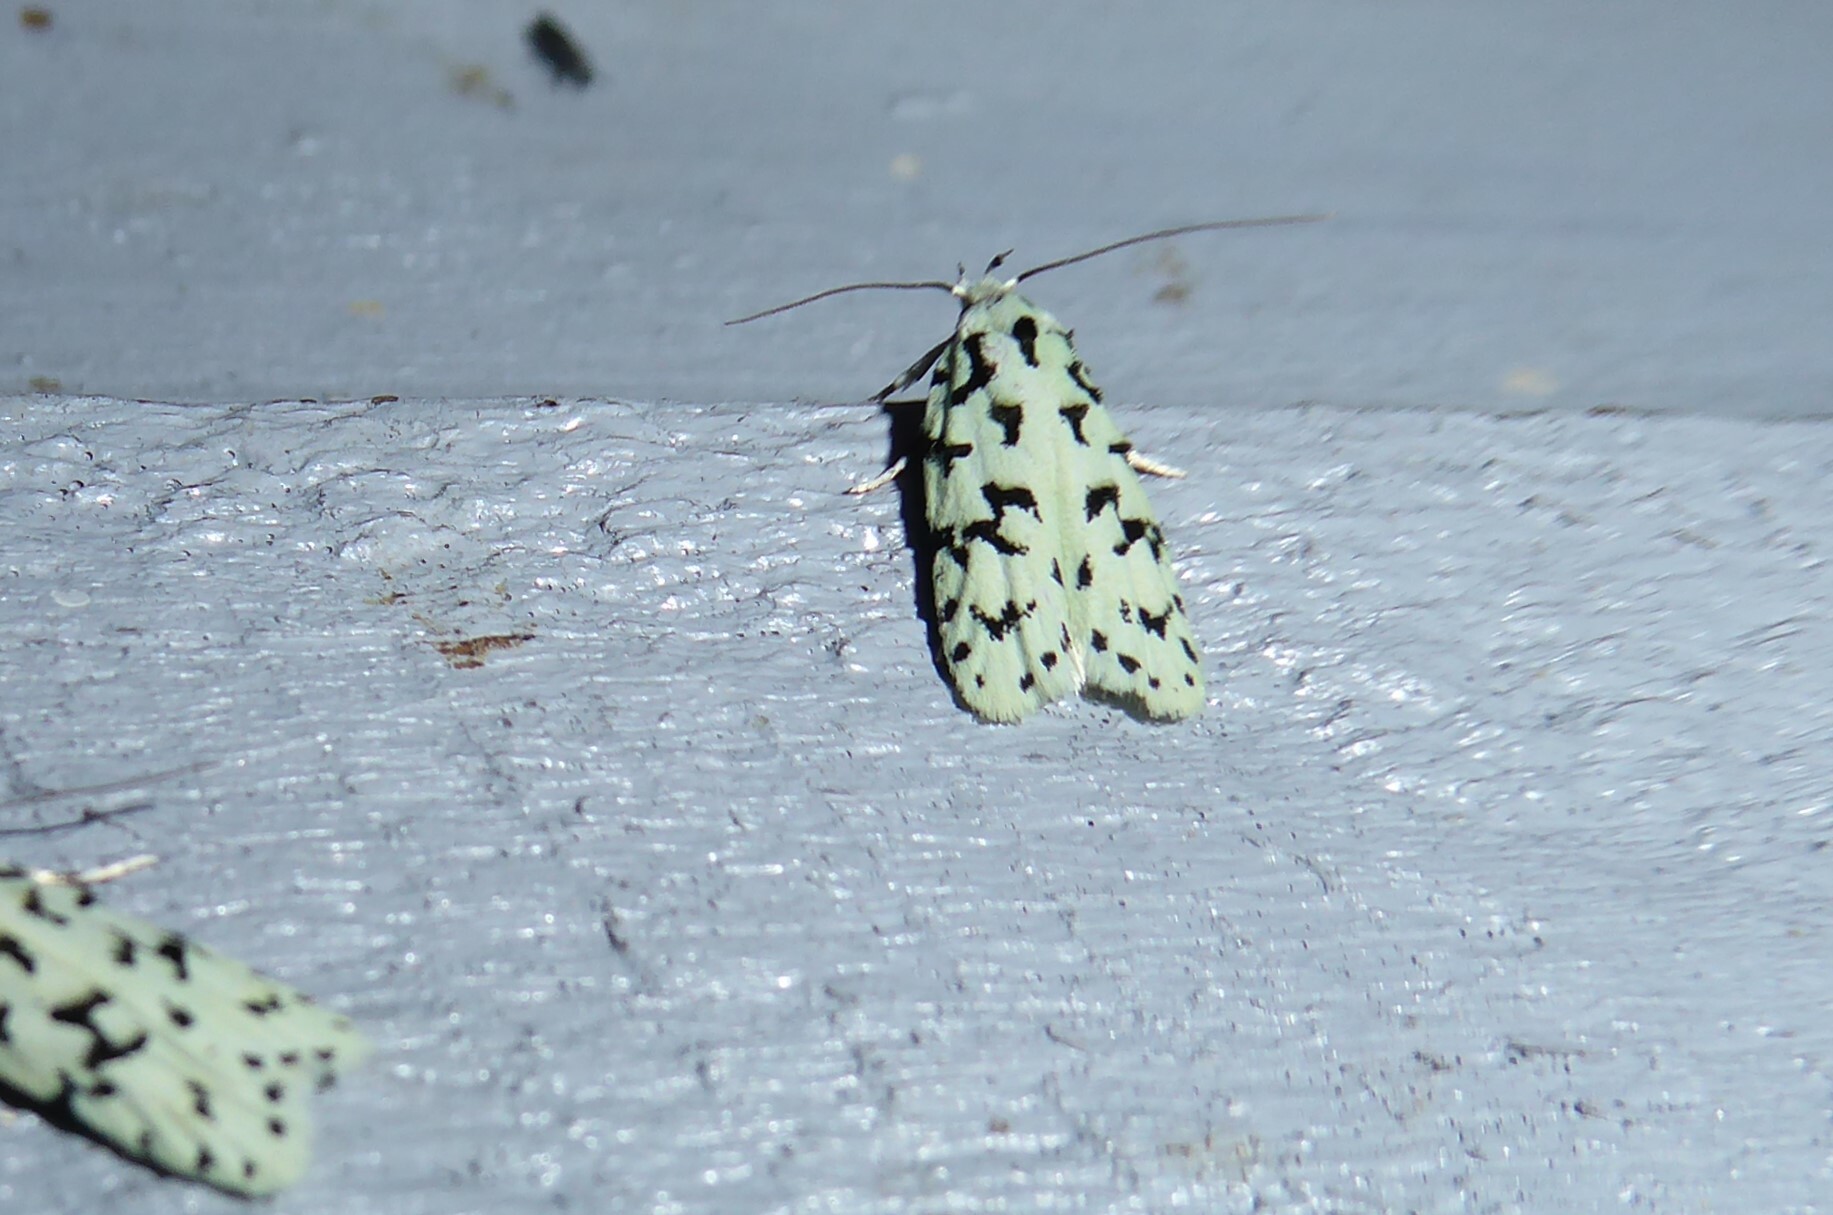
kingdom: Animalia
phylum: Arthropoda
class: Insecta
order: Lepidoptera
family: Oecophoridae
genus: Izatha
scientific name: Izatha huttoni
